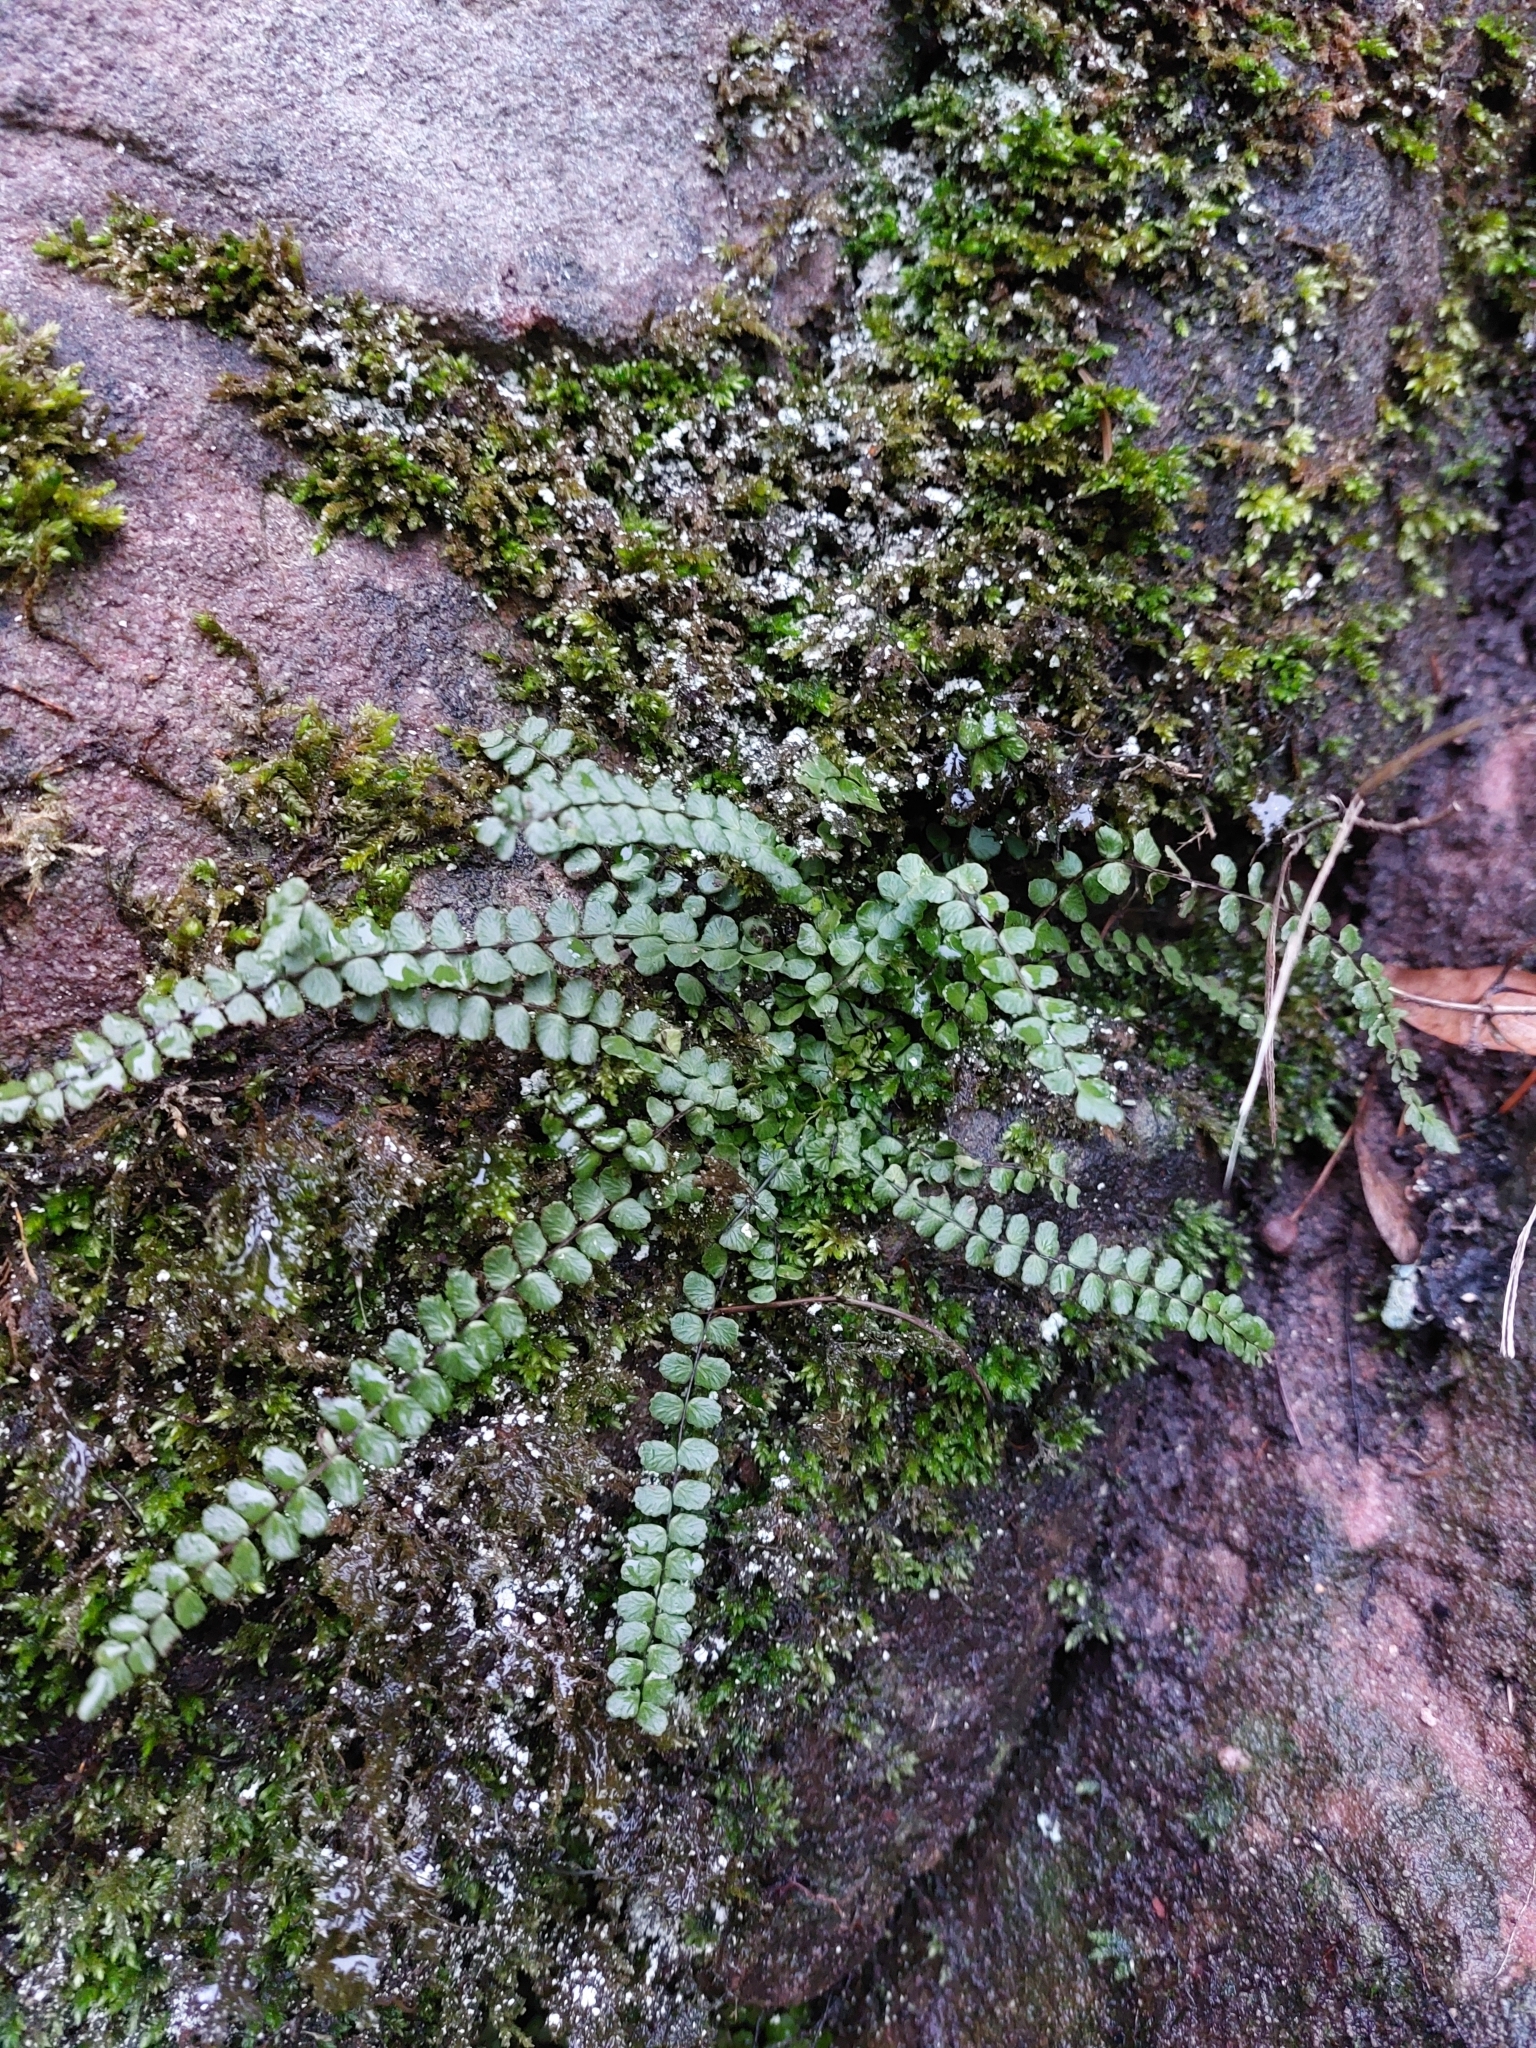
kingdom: Plantae
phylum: Tracheophyta
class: Polypodiopsida
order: Polypodiales
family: Aspleniaceae
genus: Asplenium
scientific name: Asplenium trichomanes
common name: Maidenhair spleenwort
